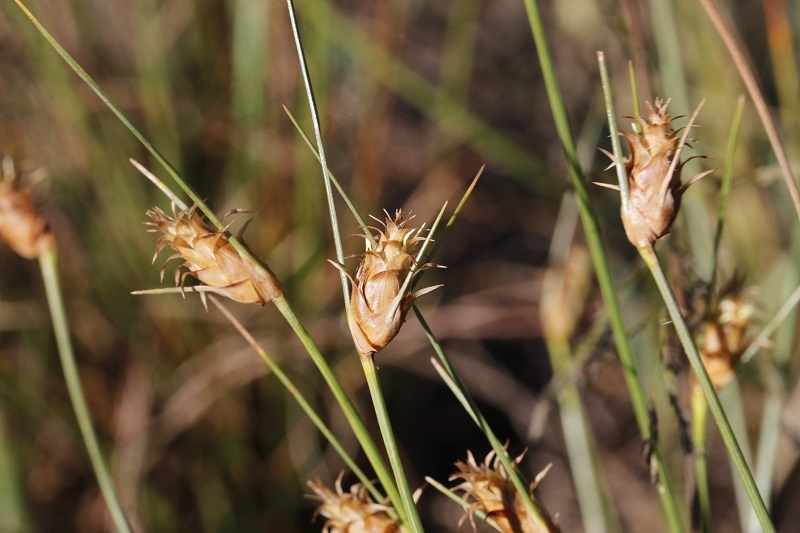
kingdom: Plantae
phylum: Tracheophyta
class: Liliopsida
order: Poales
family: Cyperaceae
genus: Ficinia
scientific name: Ficinia nigrescens
